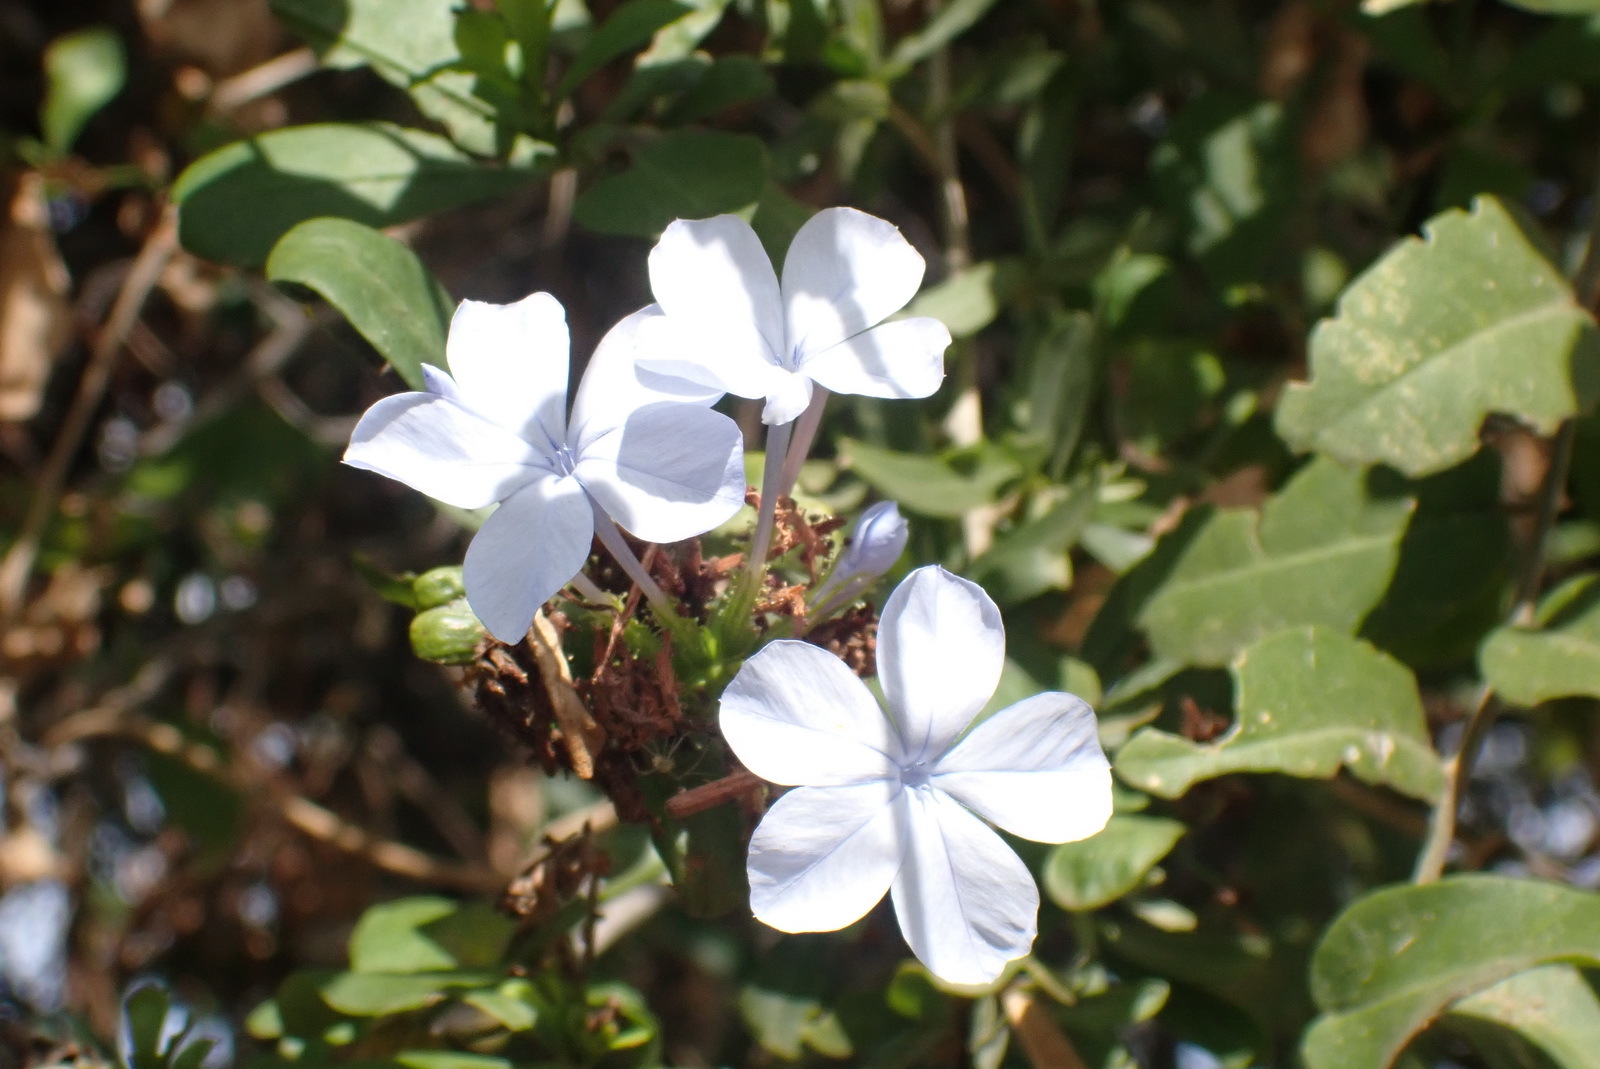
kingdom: Plantae
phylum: Tracheophyta
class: Magnoliopsida
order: Caryophyllales
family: Plumbaginaceae
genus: Plumbago
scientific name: Plumbago auriculata
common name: Cape leadwort
